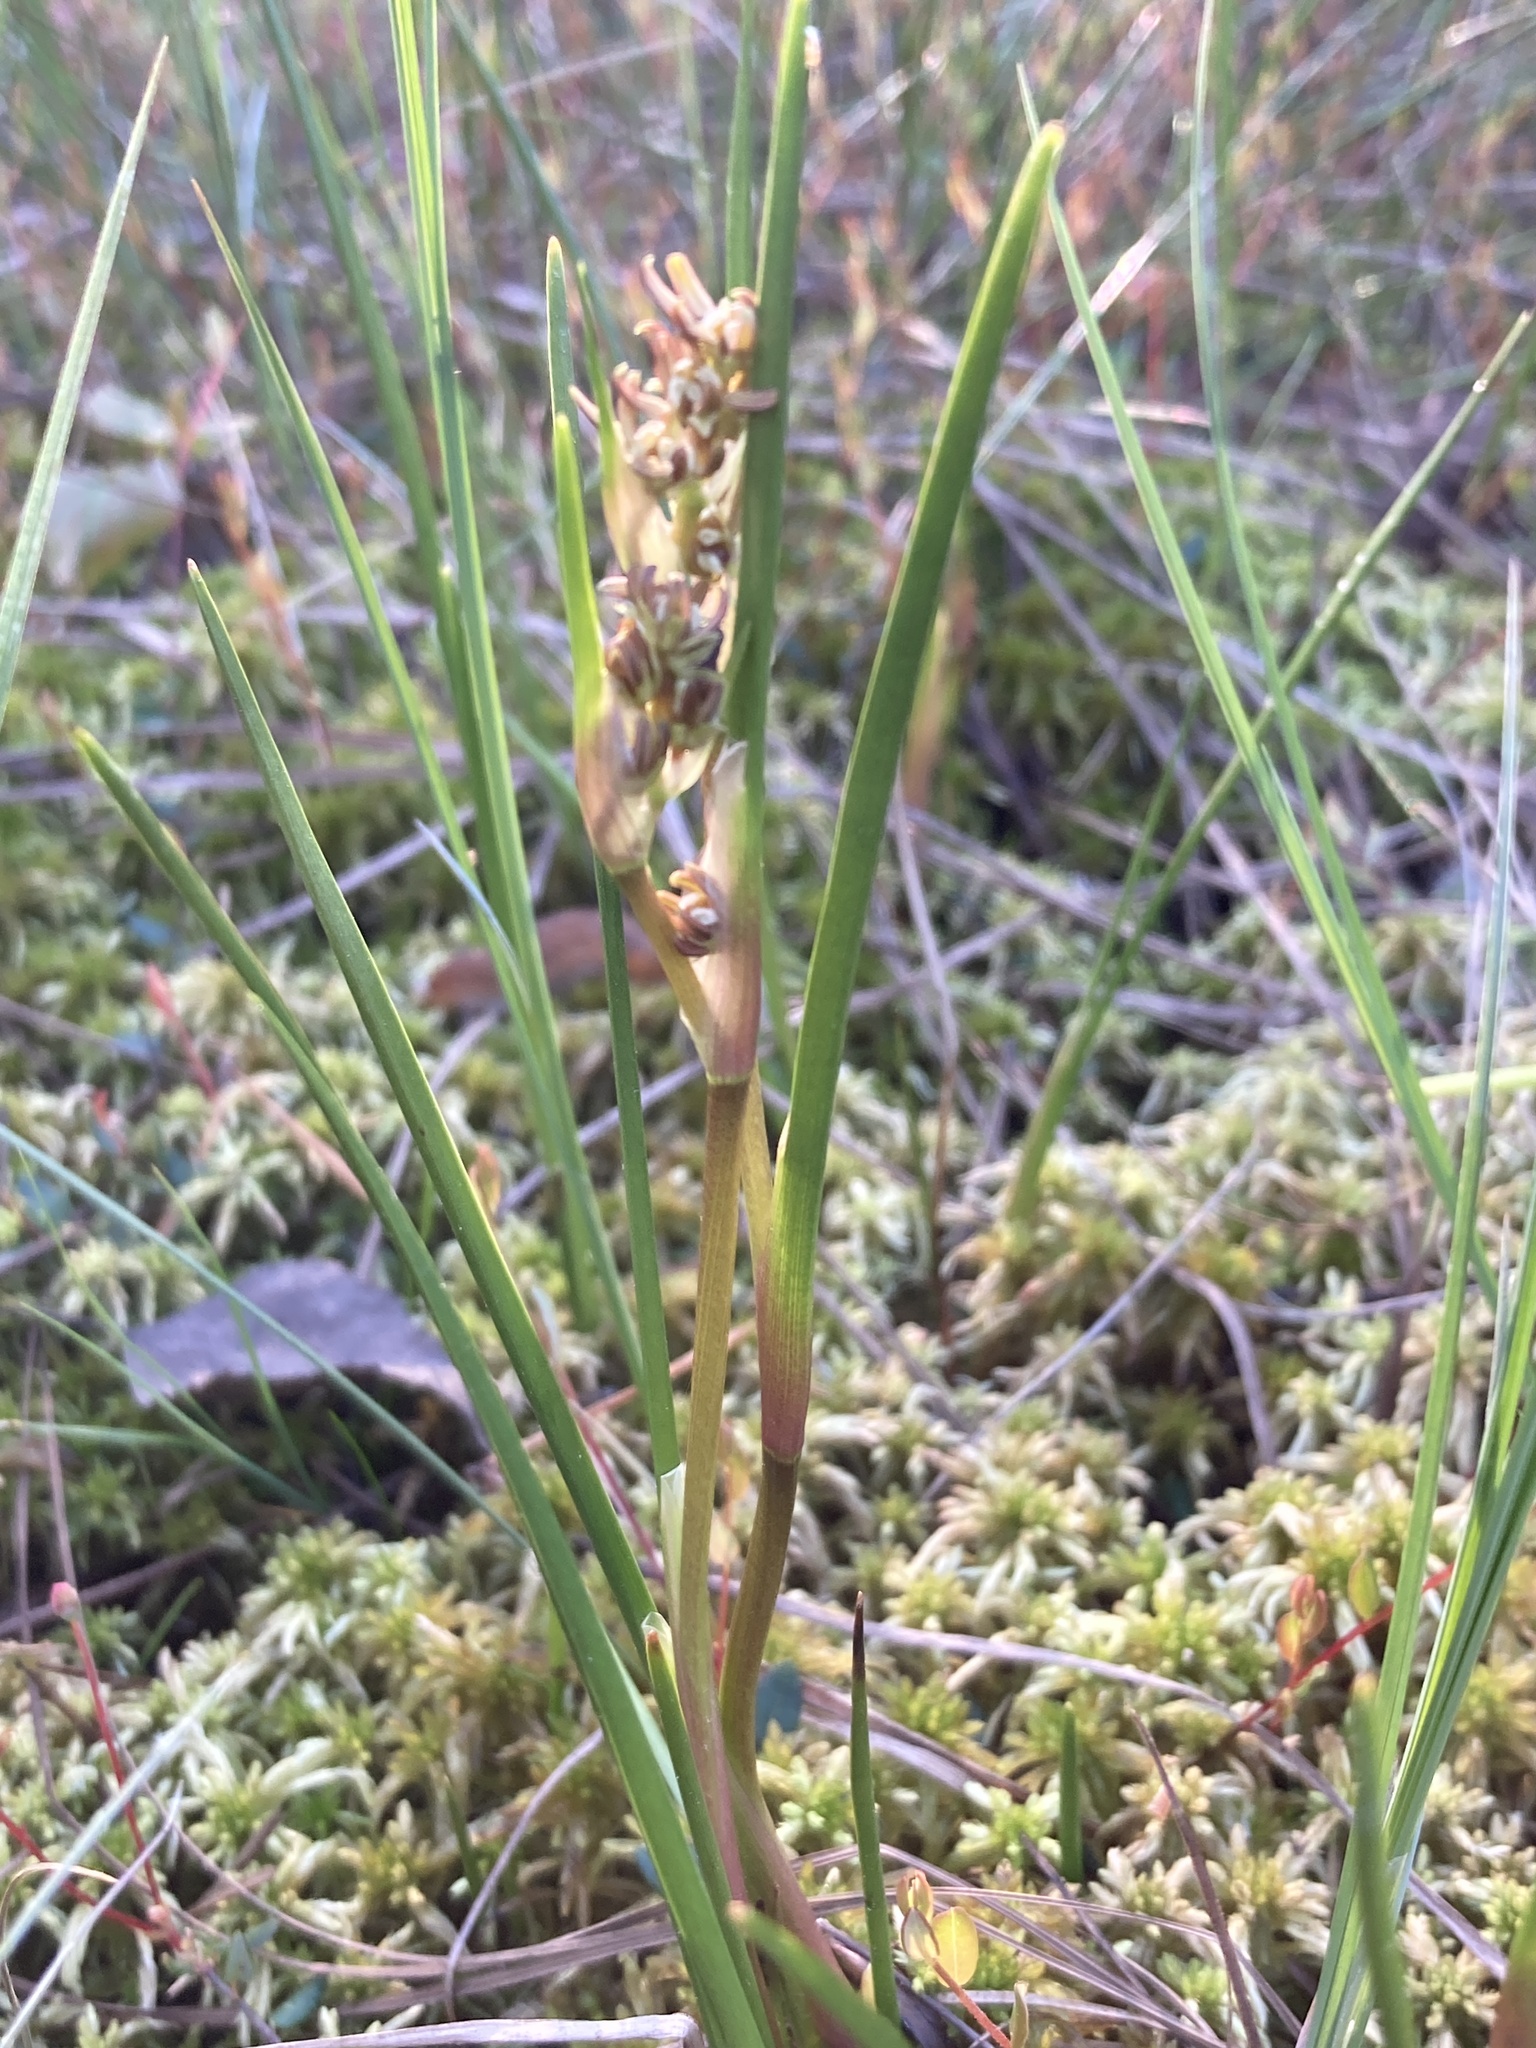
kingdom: Plantae
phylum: Tracheophyta
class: Liliopsida
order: Alismatales
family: Scheuchzeriaceae
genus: Scheuchzeria
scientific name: Scheuchzeria palustris
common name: Rannoch-rush
